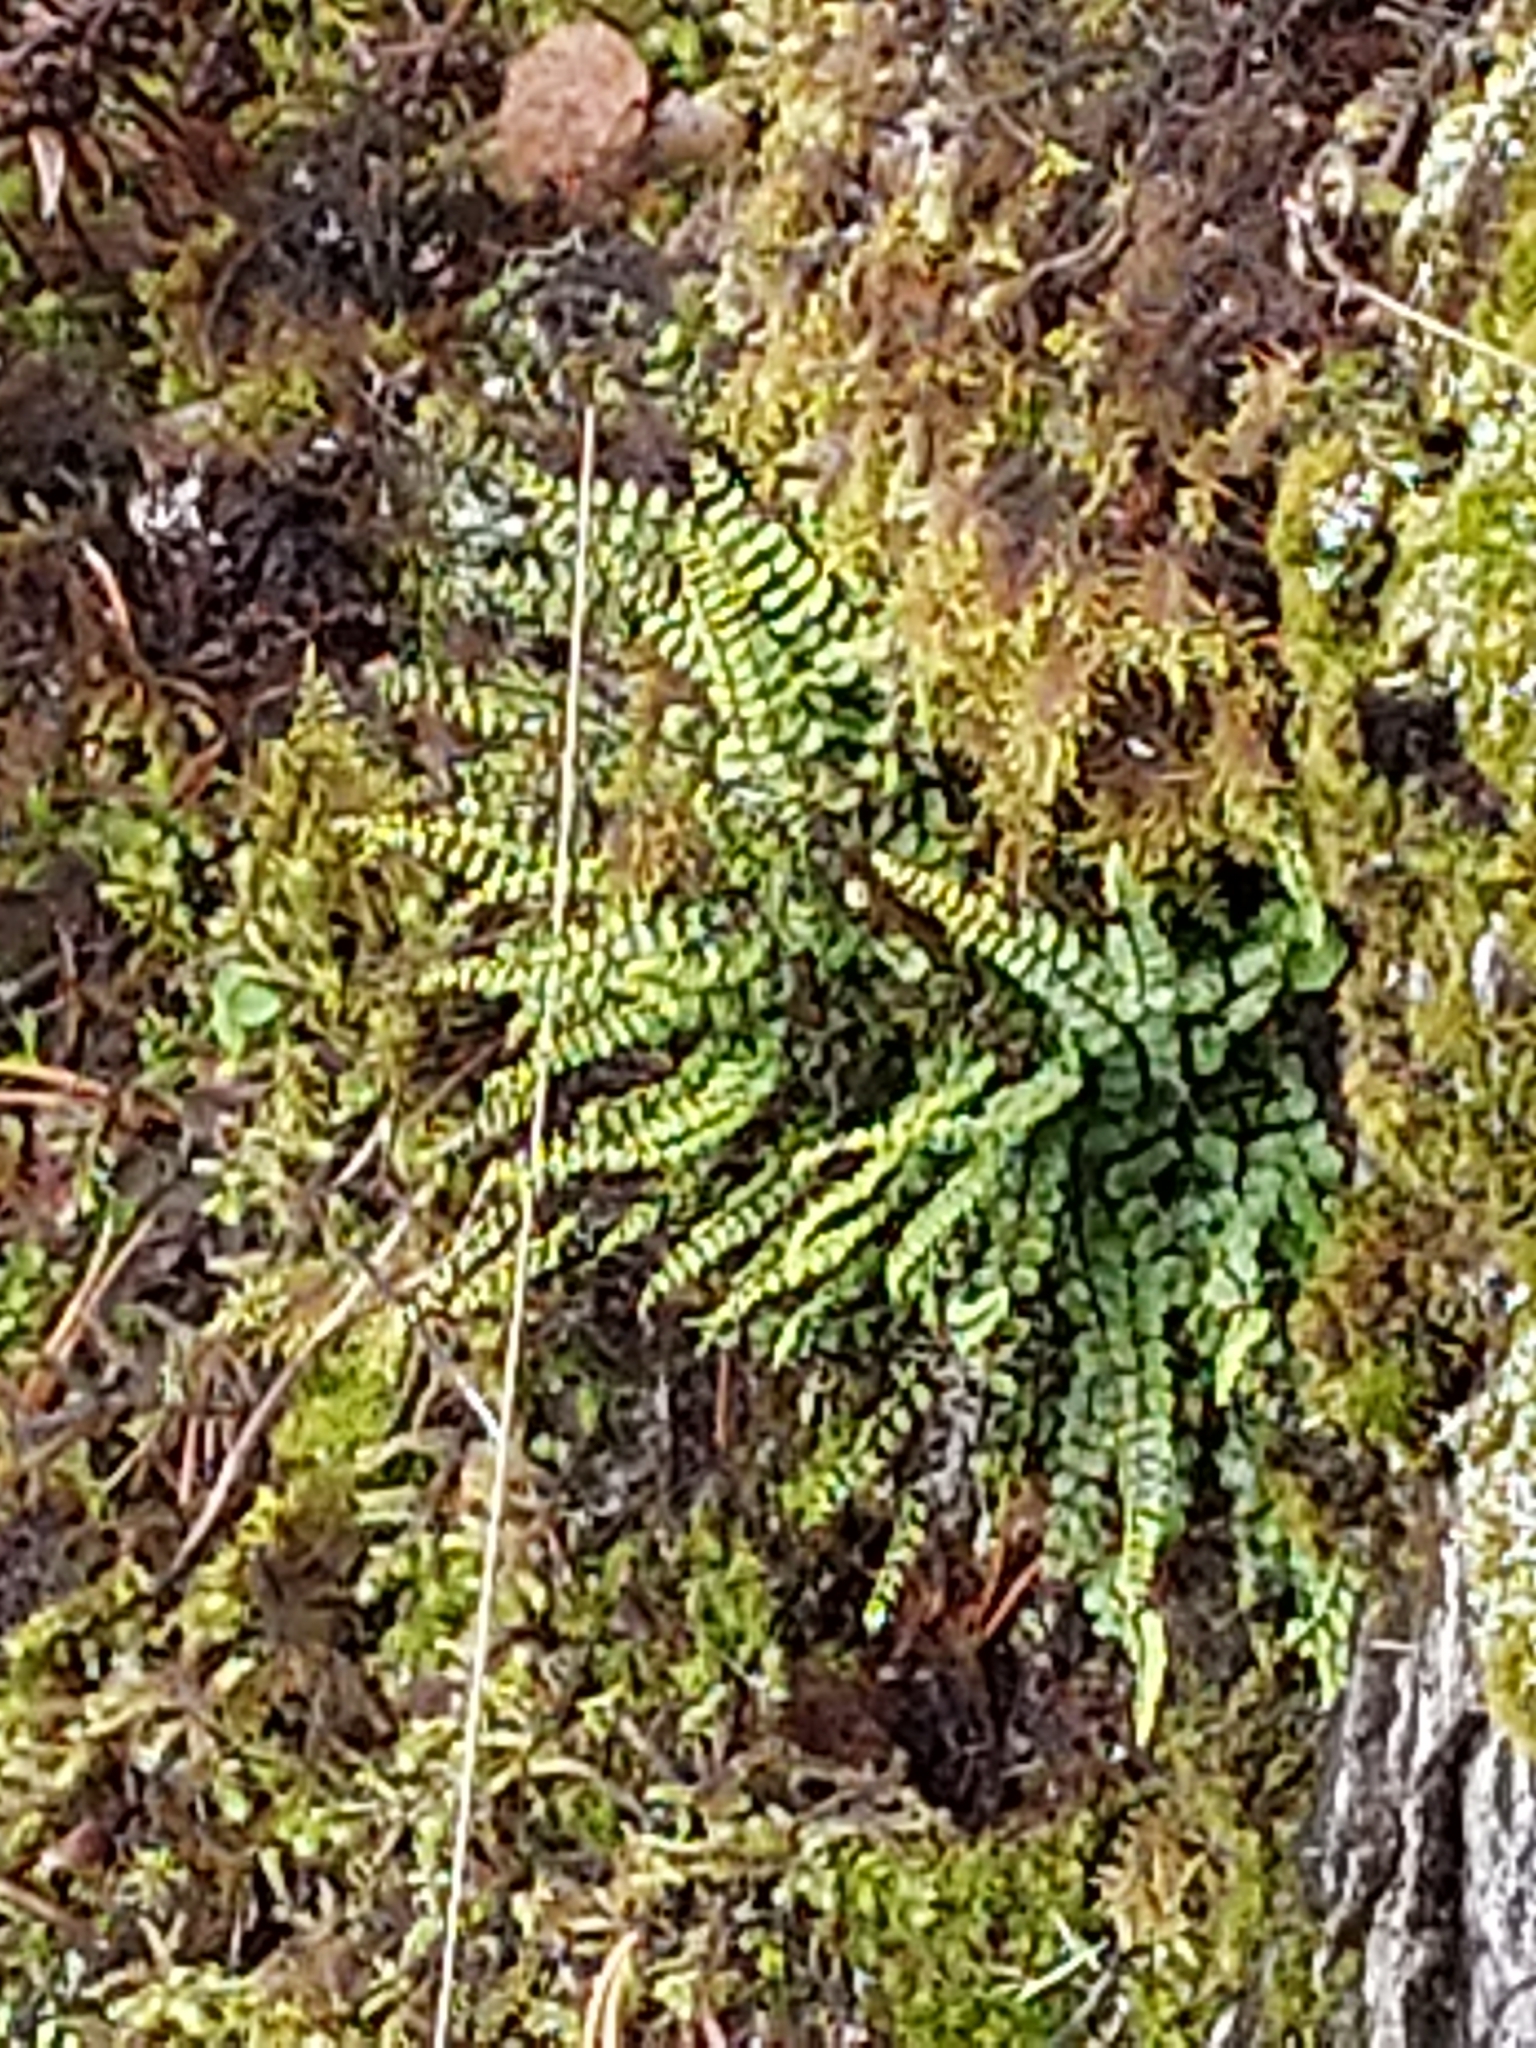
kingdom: Plantae
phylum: Tracheophyta
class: Polypodiopsida
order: Polypodiales
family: Aspleniaceae
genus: Asplenium
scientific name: Asplenium trichomanes
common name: Maidenhair spleenwort
